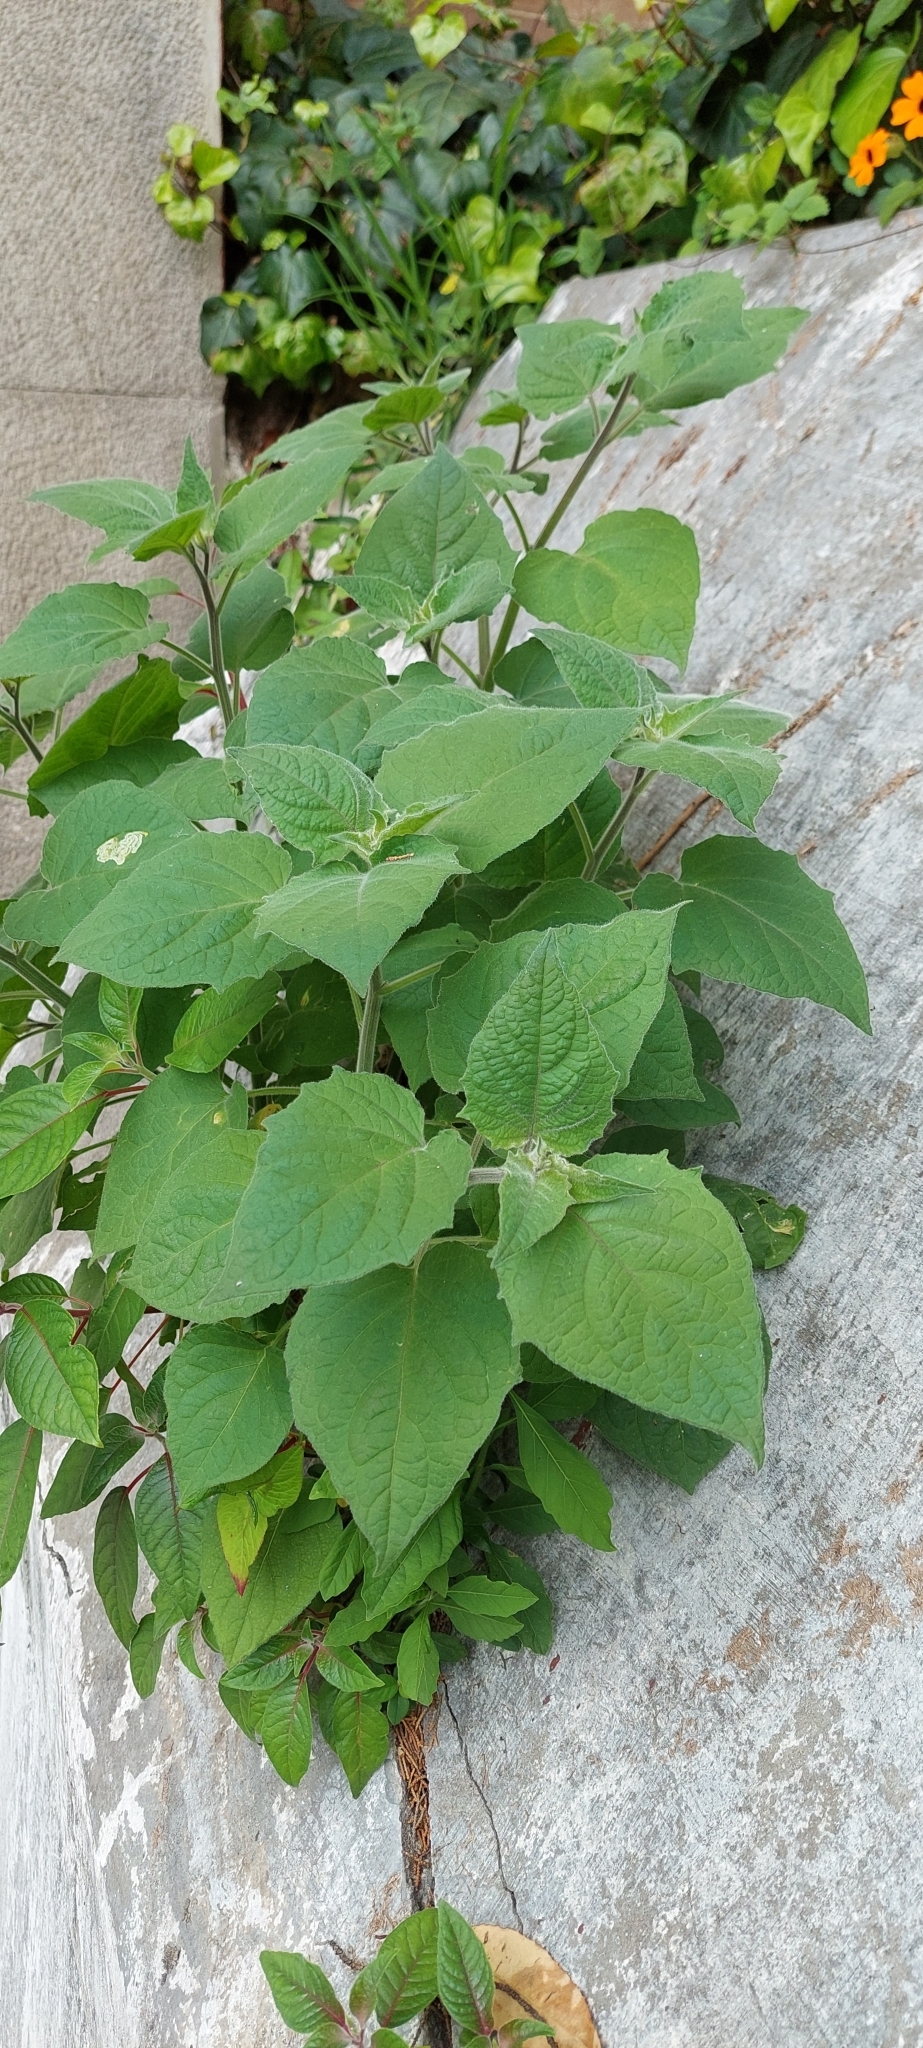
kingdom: Plantae
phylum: Tracheophyta
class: Magnoliopsida
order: Solanales
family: Solanaceae
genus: Physalis
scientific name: Physalis peruviana
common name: Cape-gooseberry
